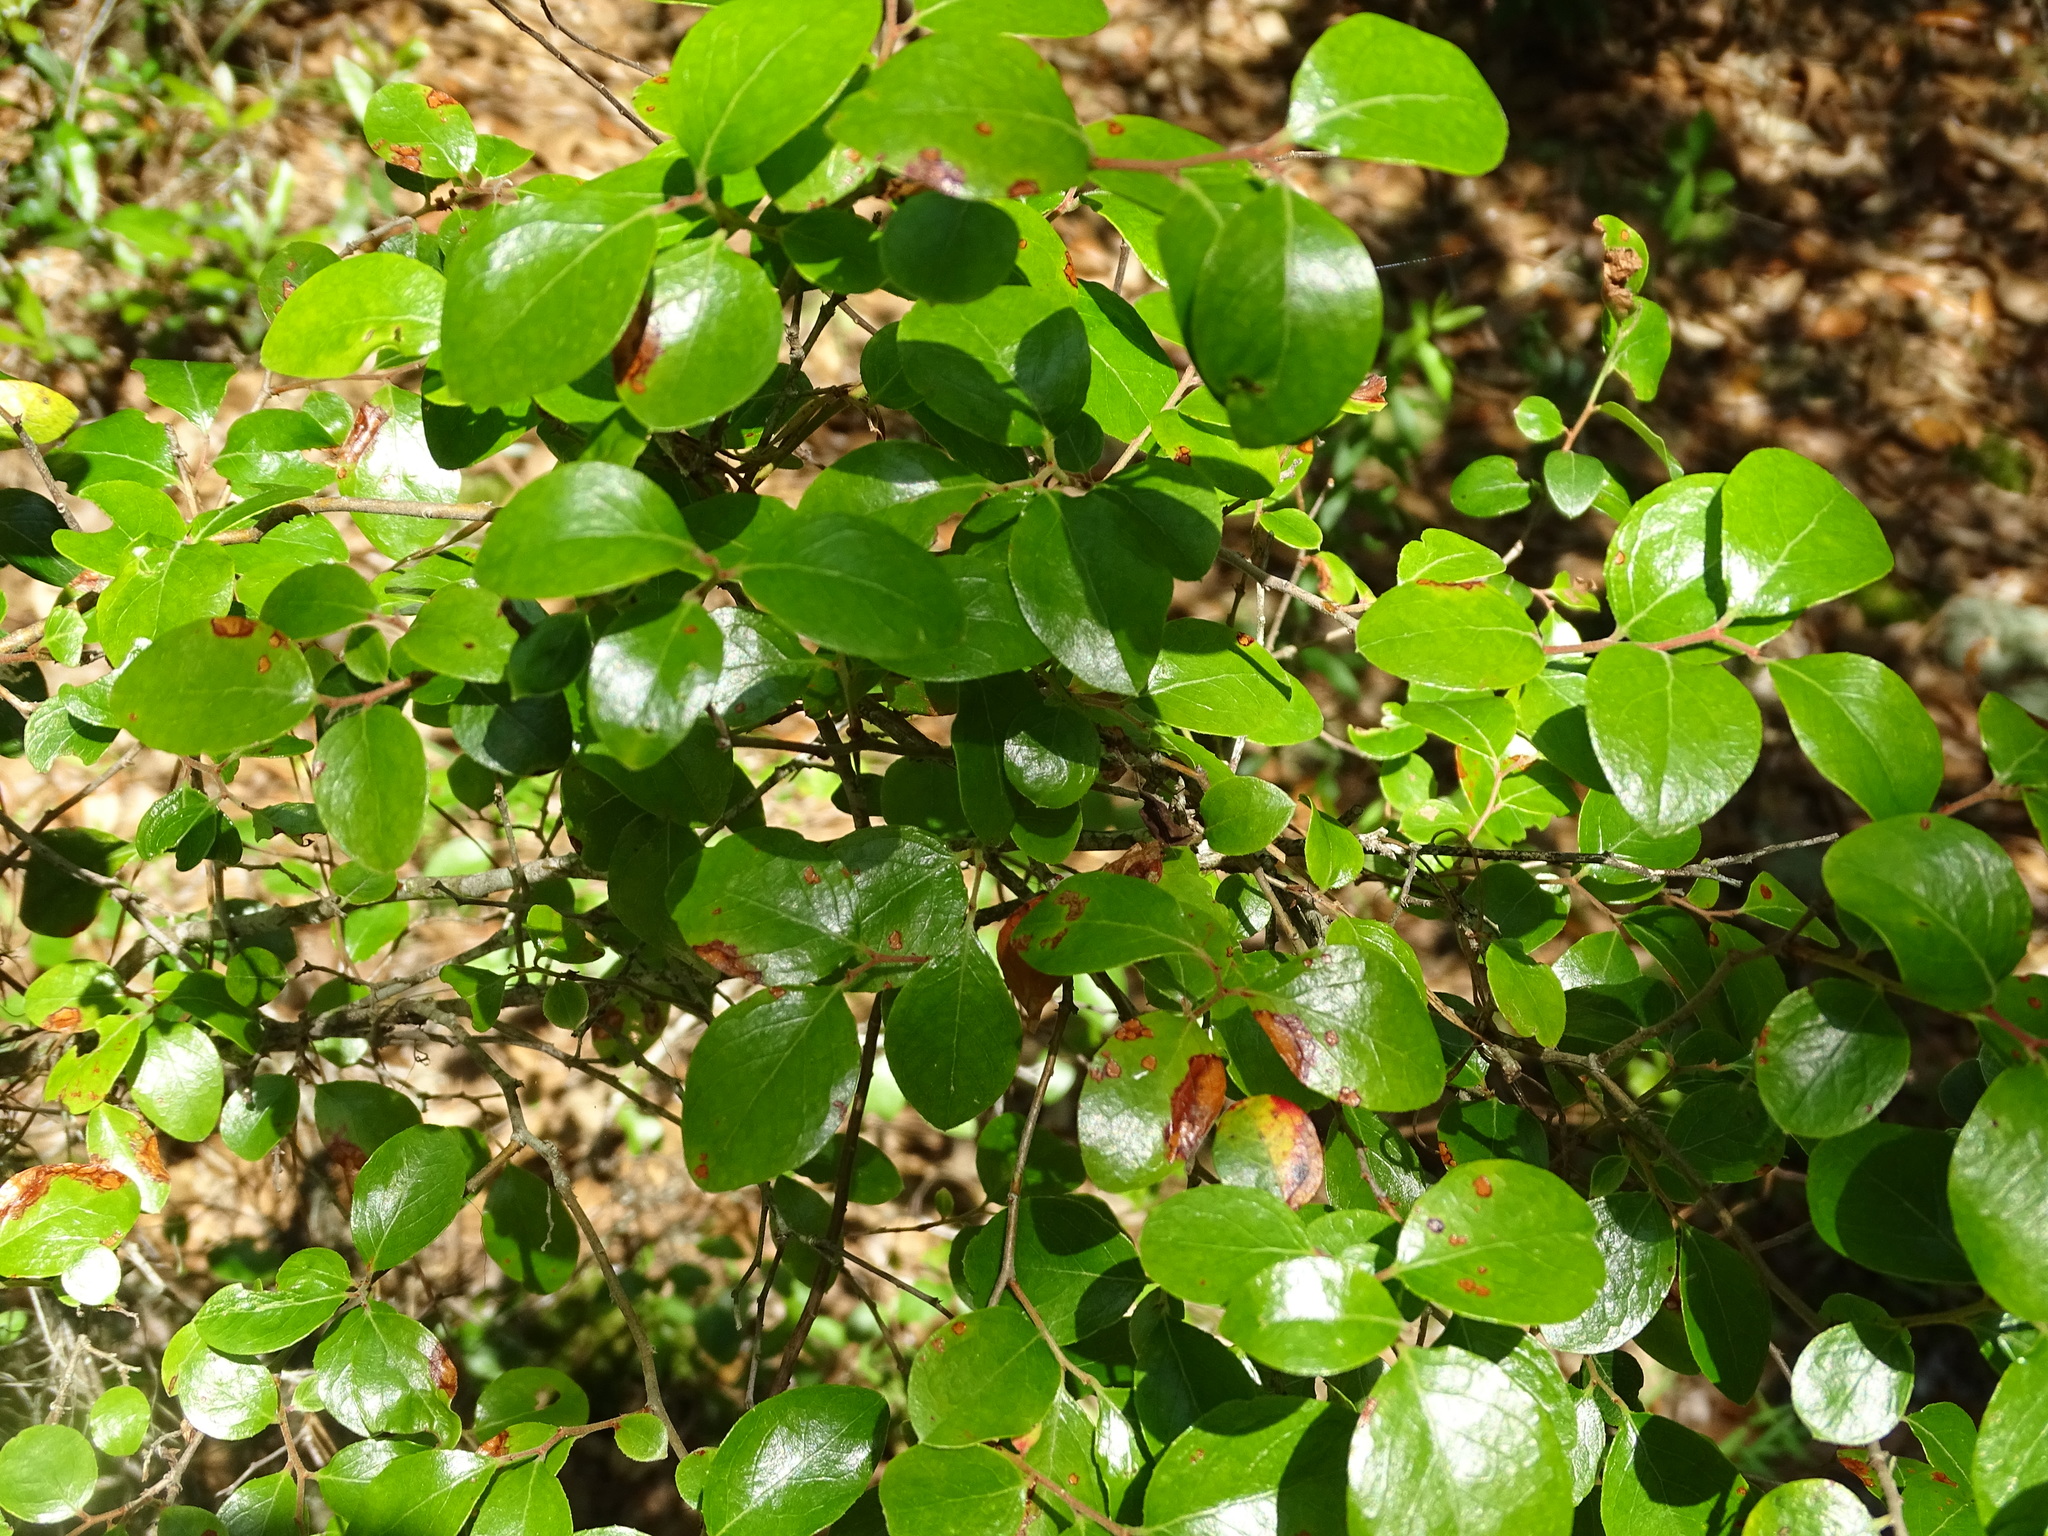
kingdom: Plantae
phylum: Tracheophyta
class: Magnoliopsida
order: Ericales
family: Ericaceae
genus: Vaccinium
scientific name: Vaccinium arboreum
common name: Farkleberry
